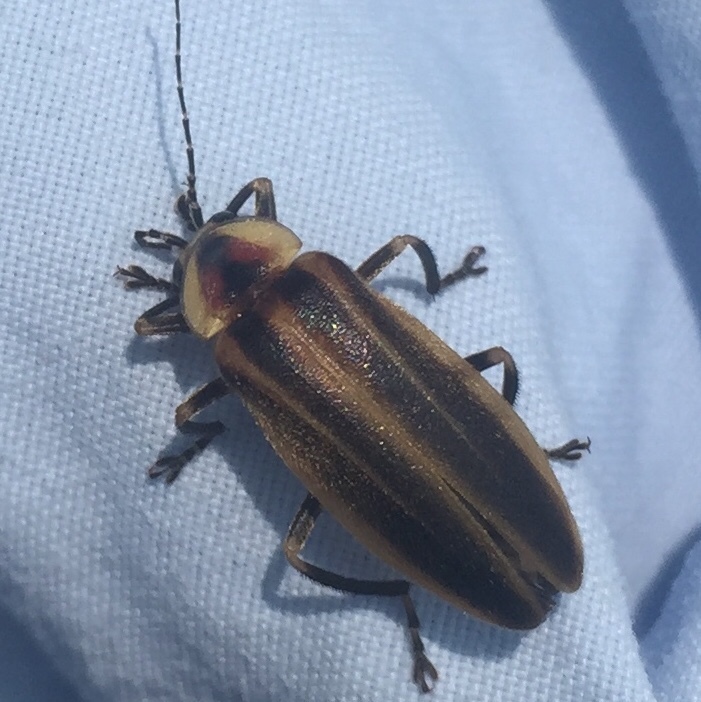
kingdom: Animalia
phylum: Arthropoda
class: Insecta
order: Coleoptera
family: Lampyridae
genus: Photuris
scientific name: Photuris
